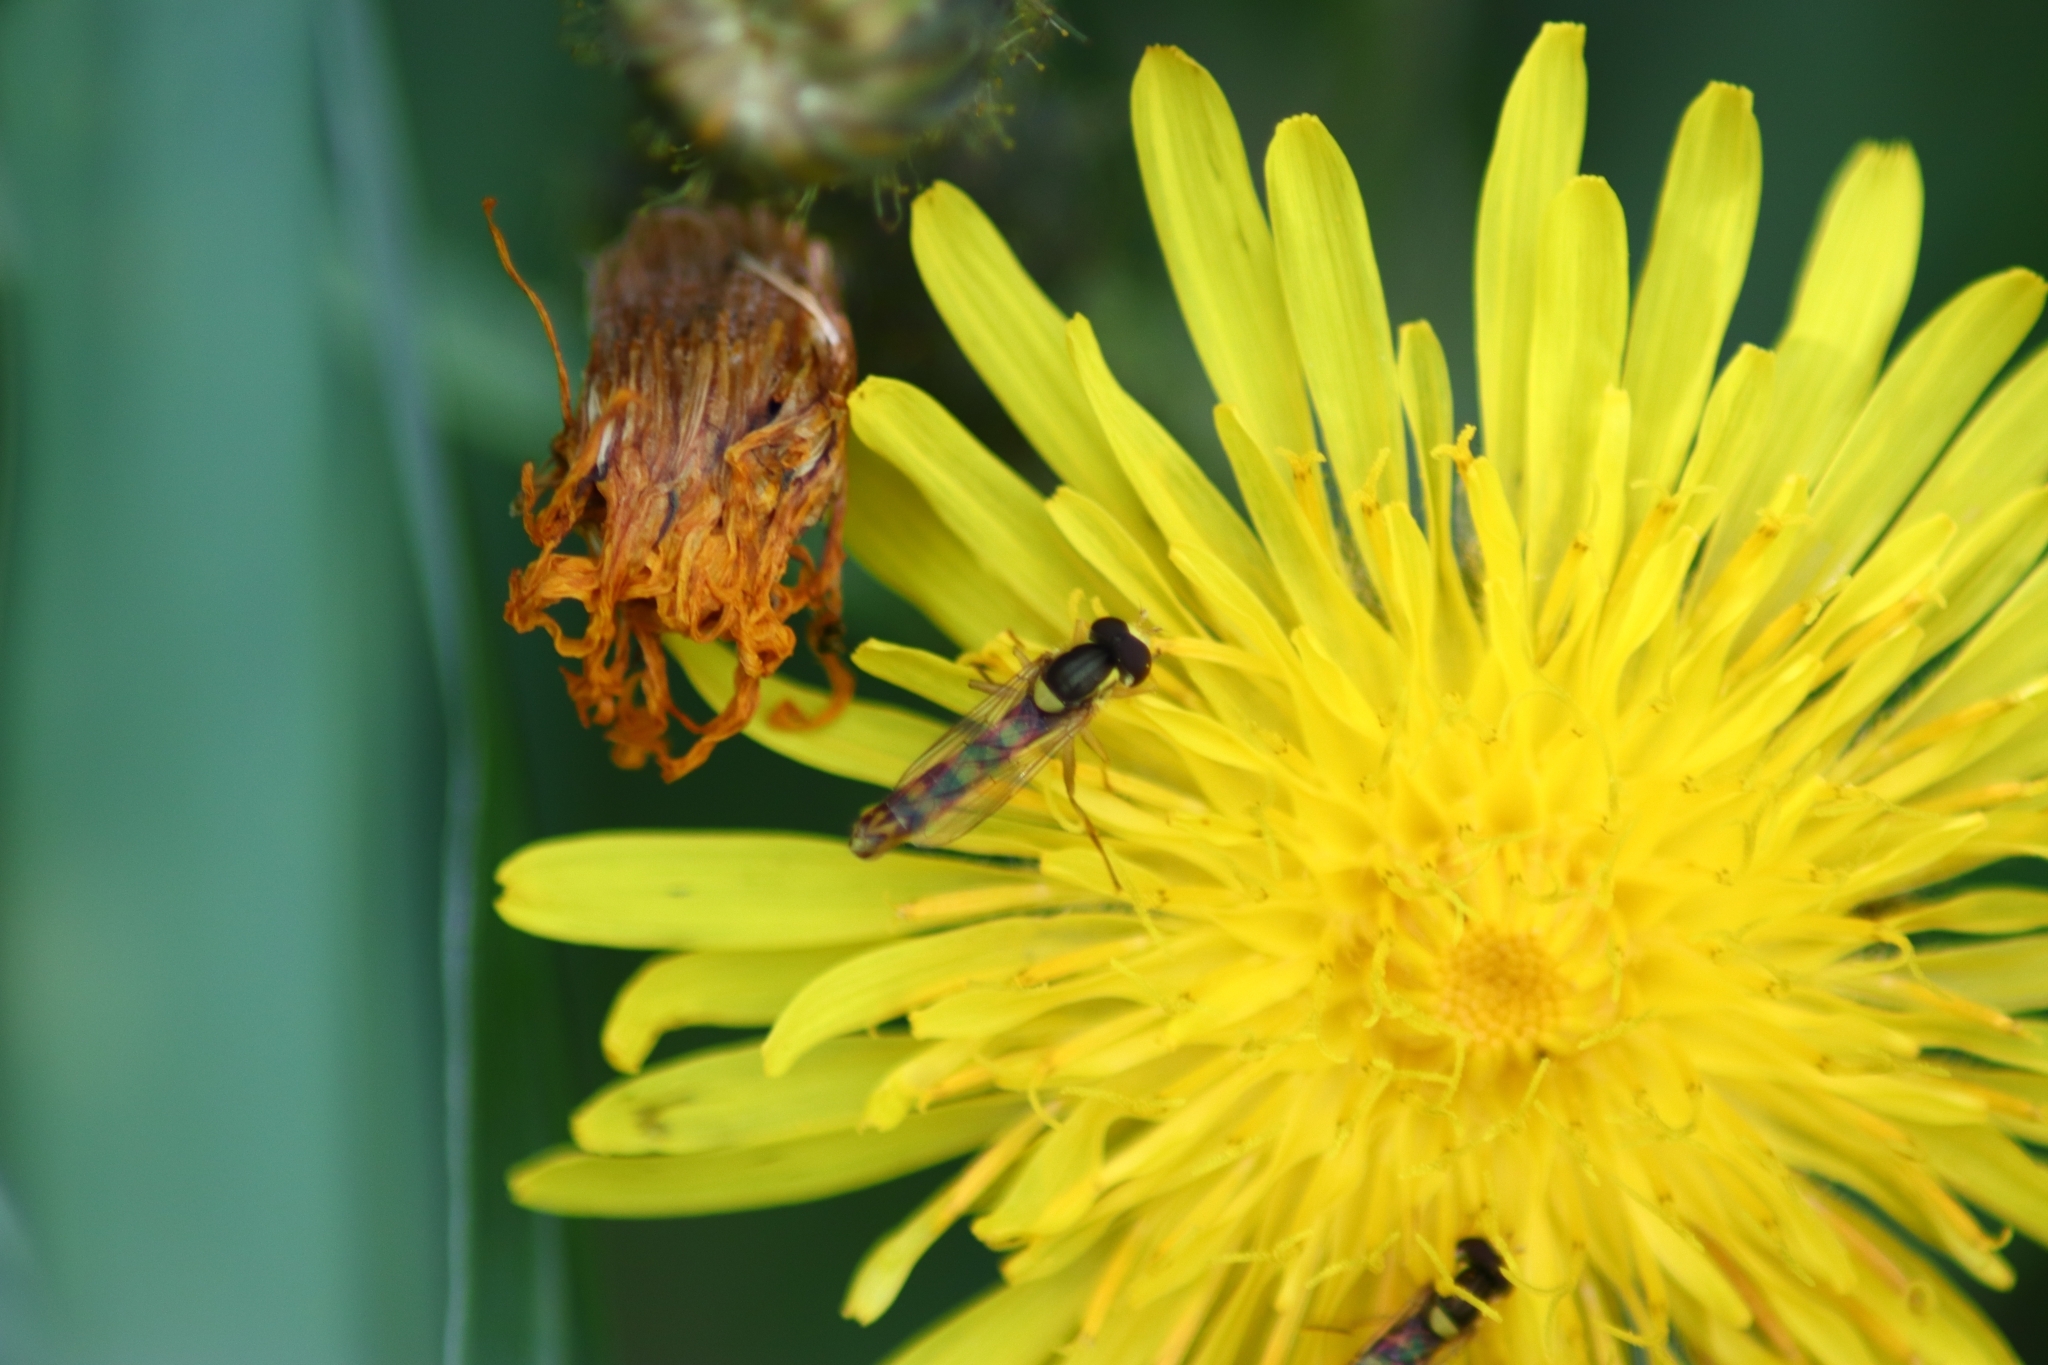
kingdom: Animalia
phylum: Arthropoda
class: Insecta
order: Diptera
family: Syrphidae
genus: Sphaerophoria
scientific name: Sphaerophoria scripta
